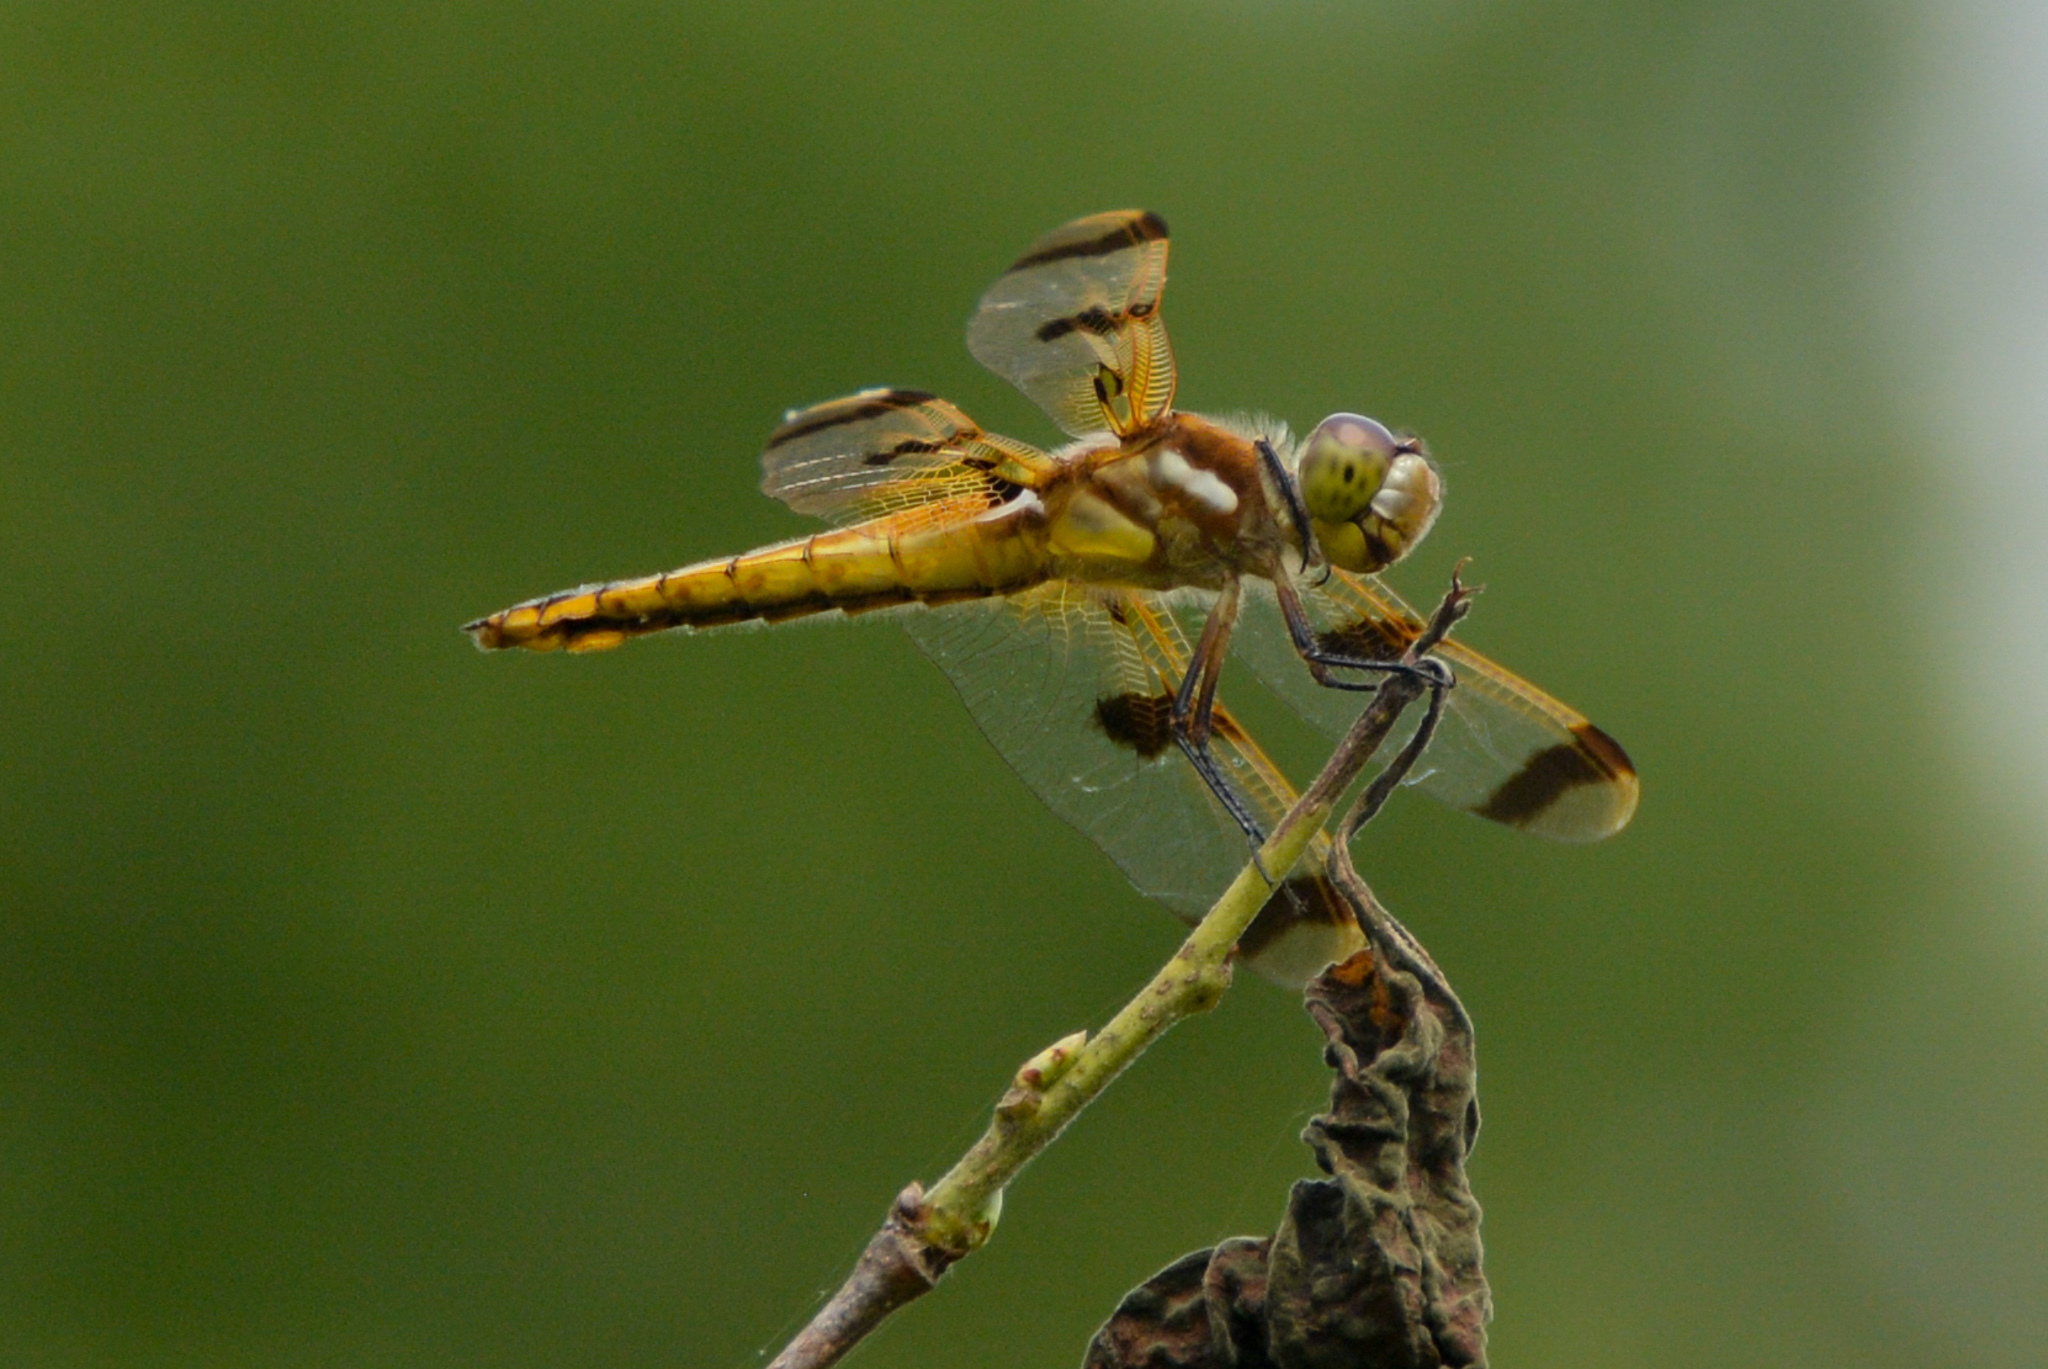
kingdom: Animalia
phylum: Arthropoda
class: Insecta
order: Odonata
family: Libellulidae
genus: Libellula
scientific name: Libellula semifasciata
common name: Painted skimmer
